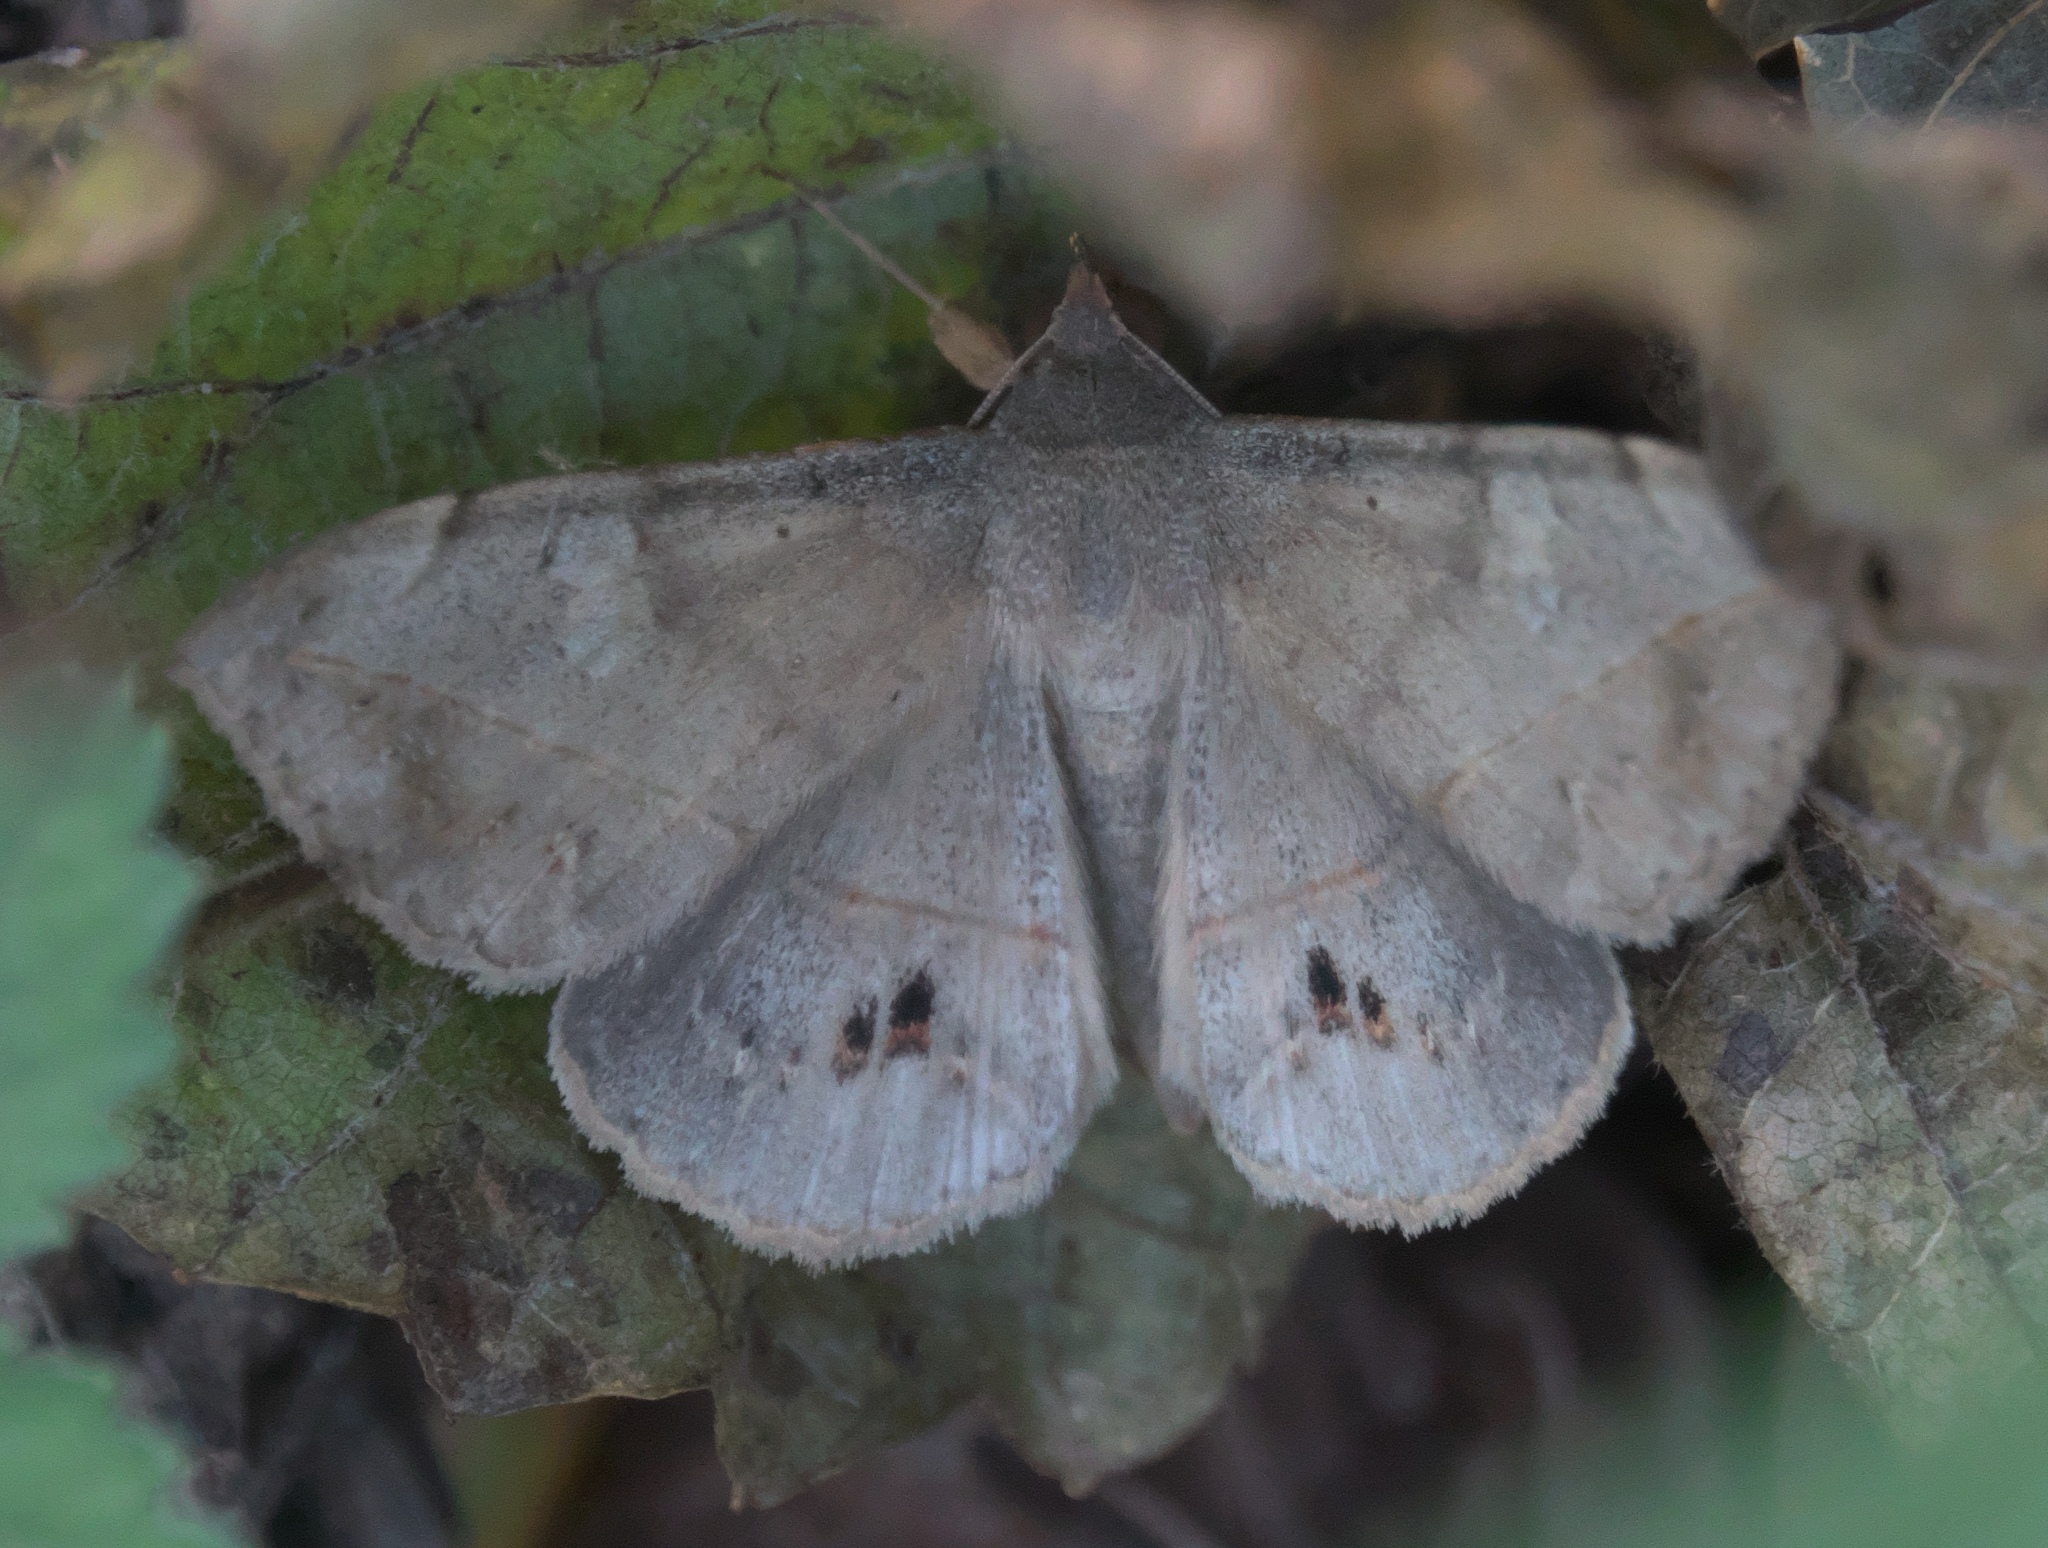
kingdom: Animalia
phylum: Arthropoda
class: Insecta
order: Lepidoptera
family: Erebidae
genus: Anticarsia
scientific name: Anticarsia gemmatalis
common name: Cutworm moth
